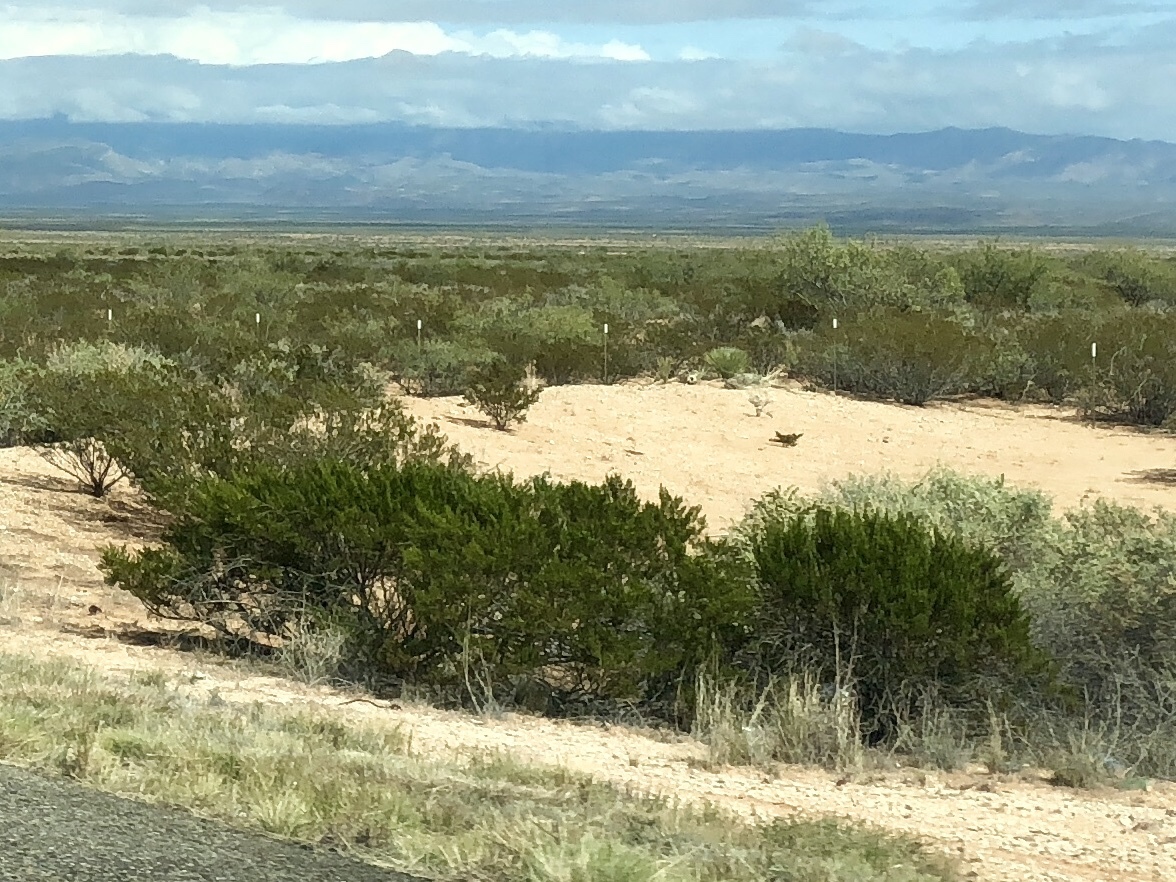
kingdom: Plantae
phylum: Tracheophyta
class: Magnoliopsida
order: Zygophyllales
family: Zygophyllaceae
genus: Larrea
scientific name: Larrea tridentata
